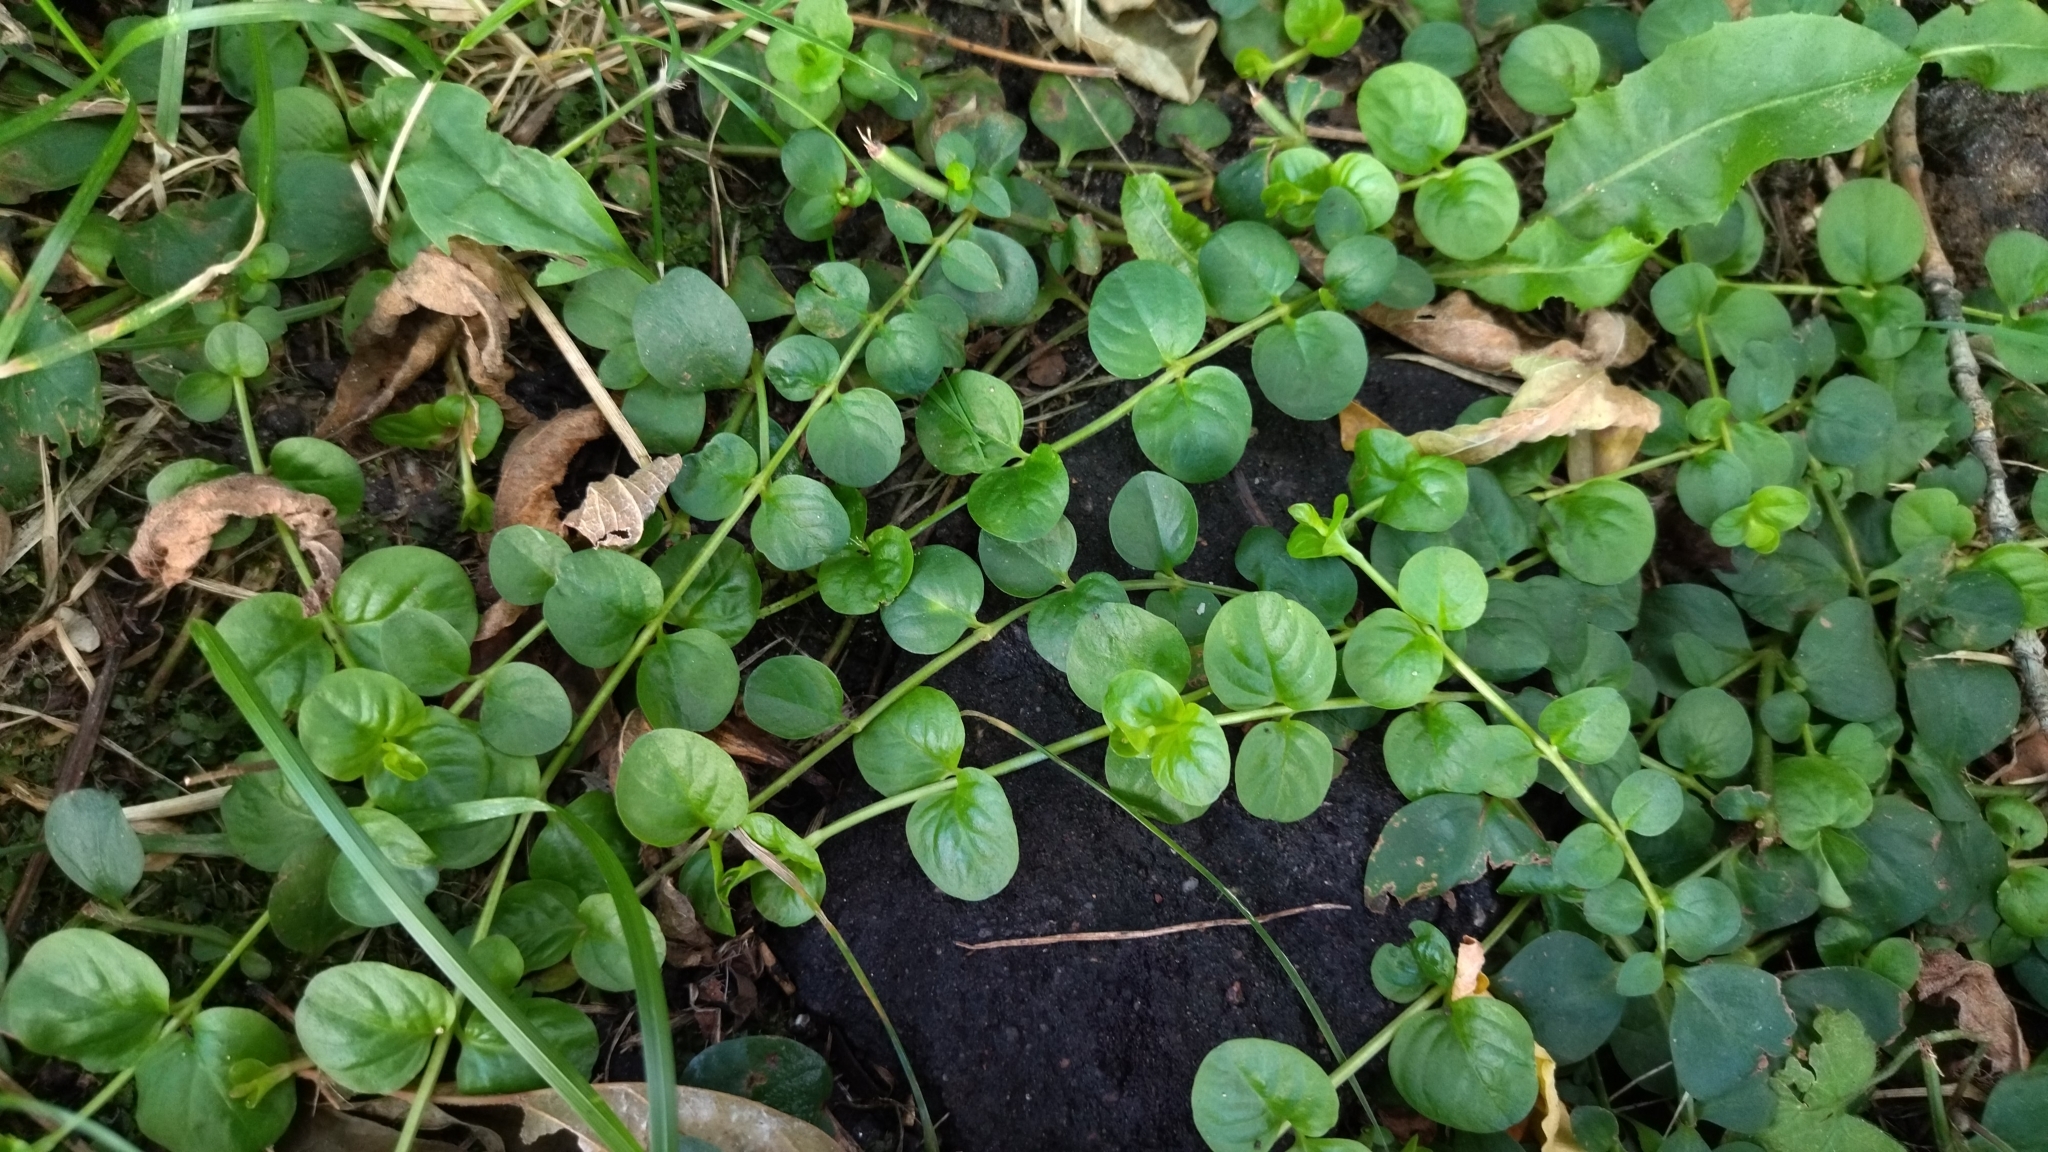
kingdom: Plantae
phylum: Tracheophyta
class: Magnoliopsida
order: Ericales
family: Primulaceae
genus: Lysimachia
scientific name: Lysimachia nummularia
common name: Moneywort
